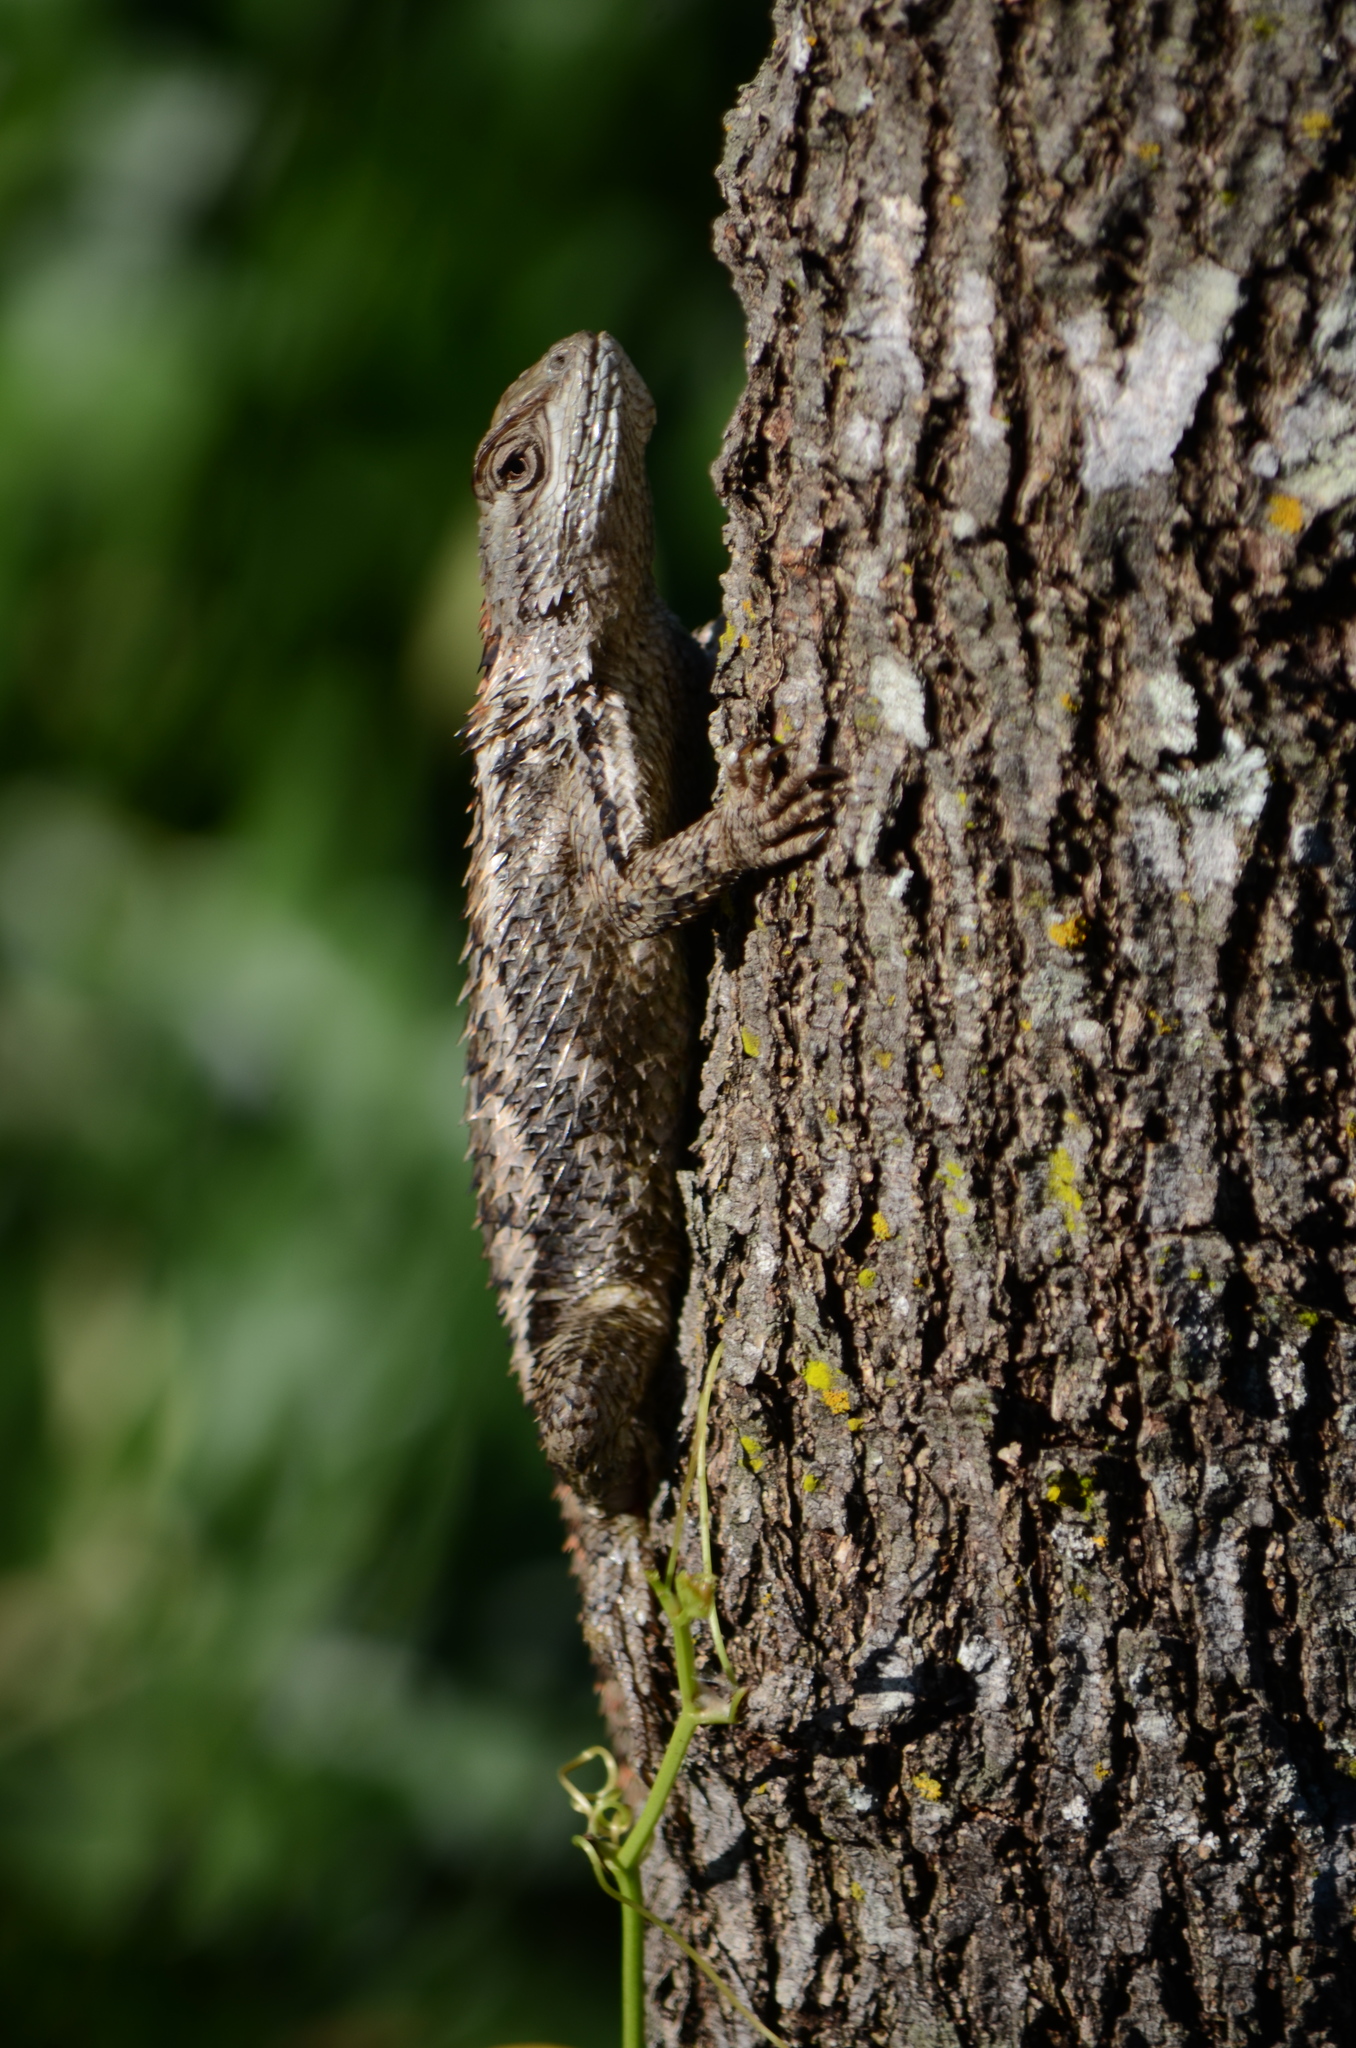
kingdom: Animalia
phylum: Chordata
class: Squamata
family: Phrynosomatidae
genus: Sceloporus
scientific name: Sceloporus olivaceus
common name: Texas spiny lizard
